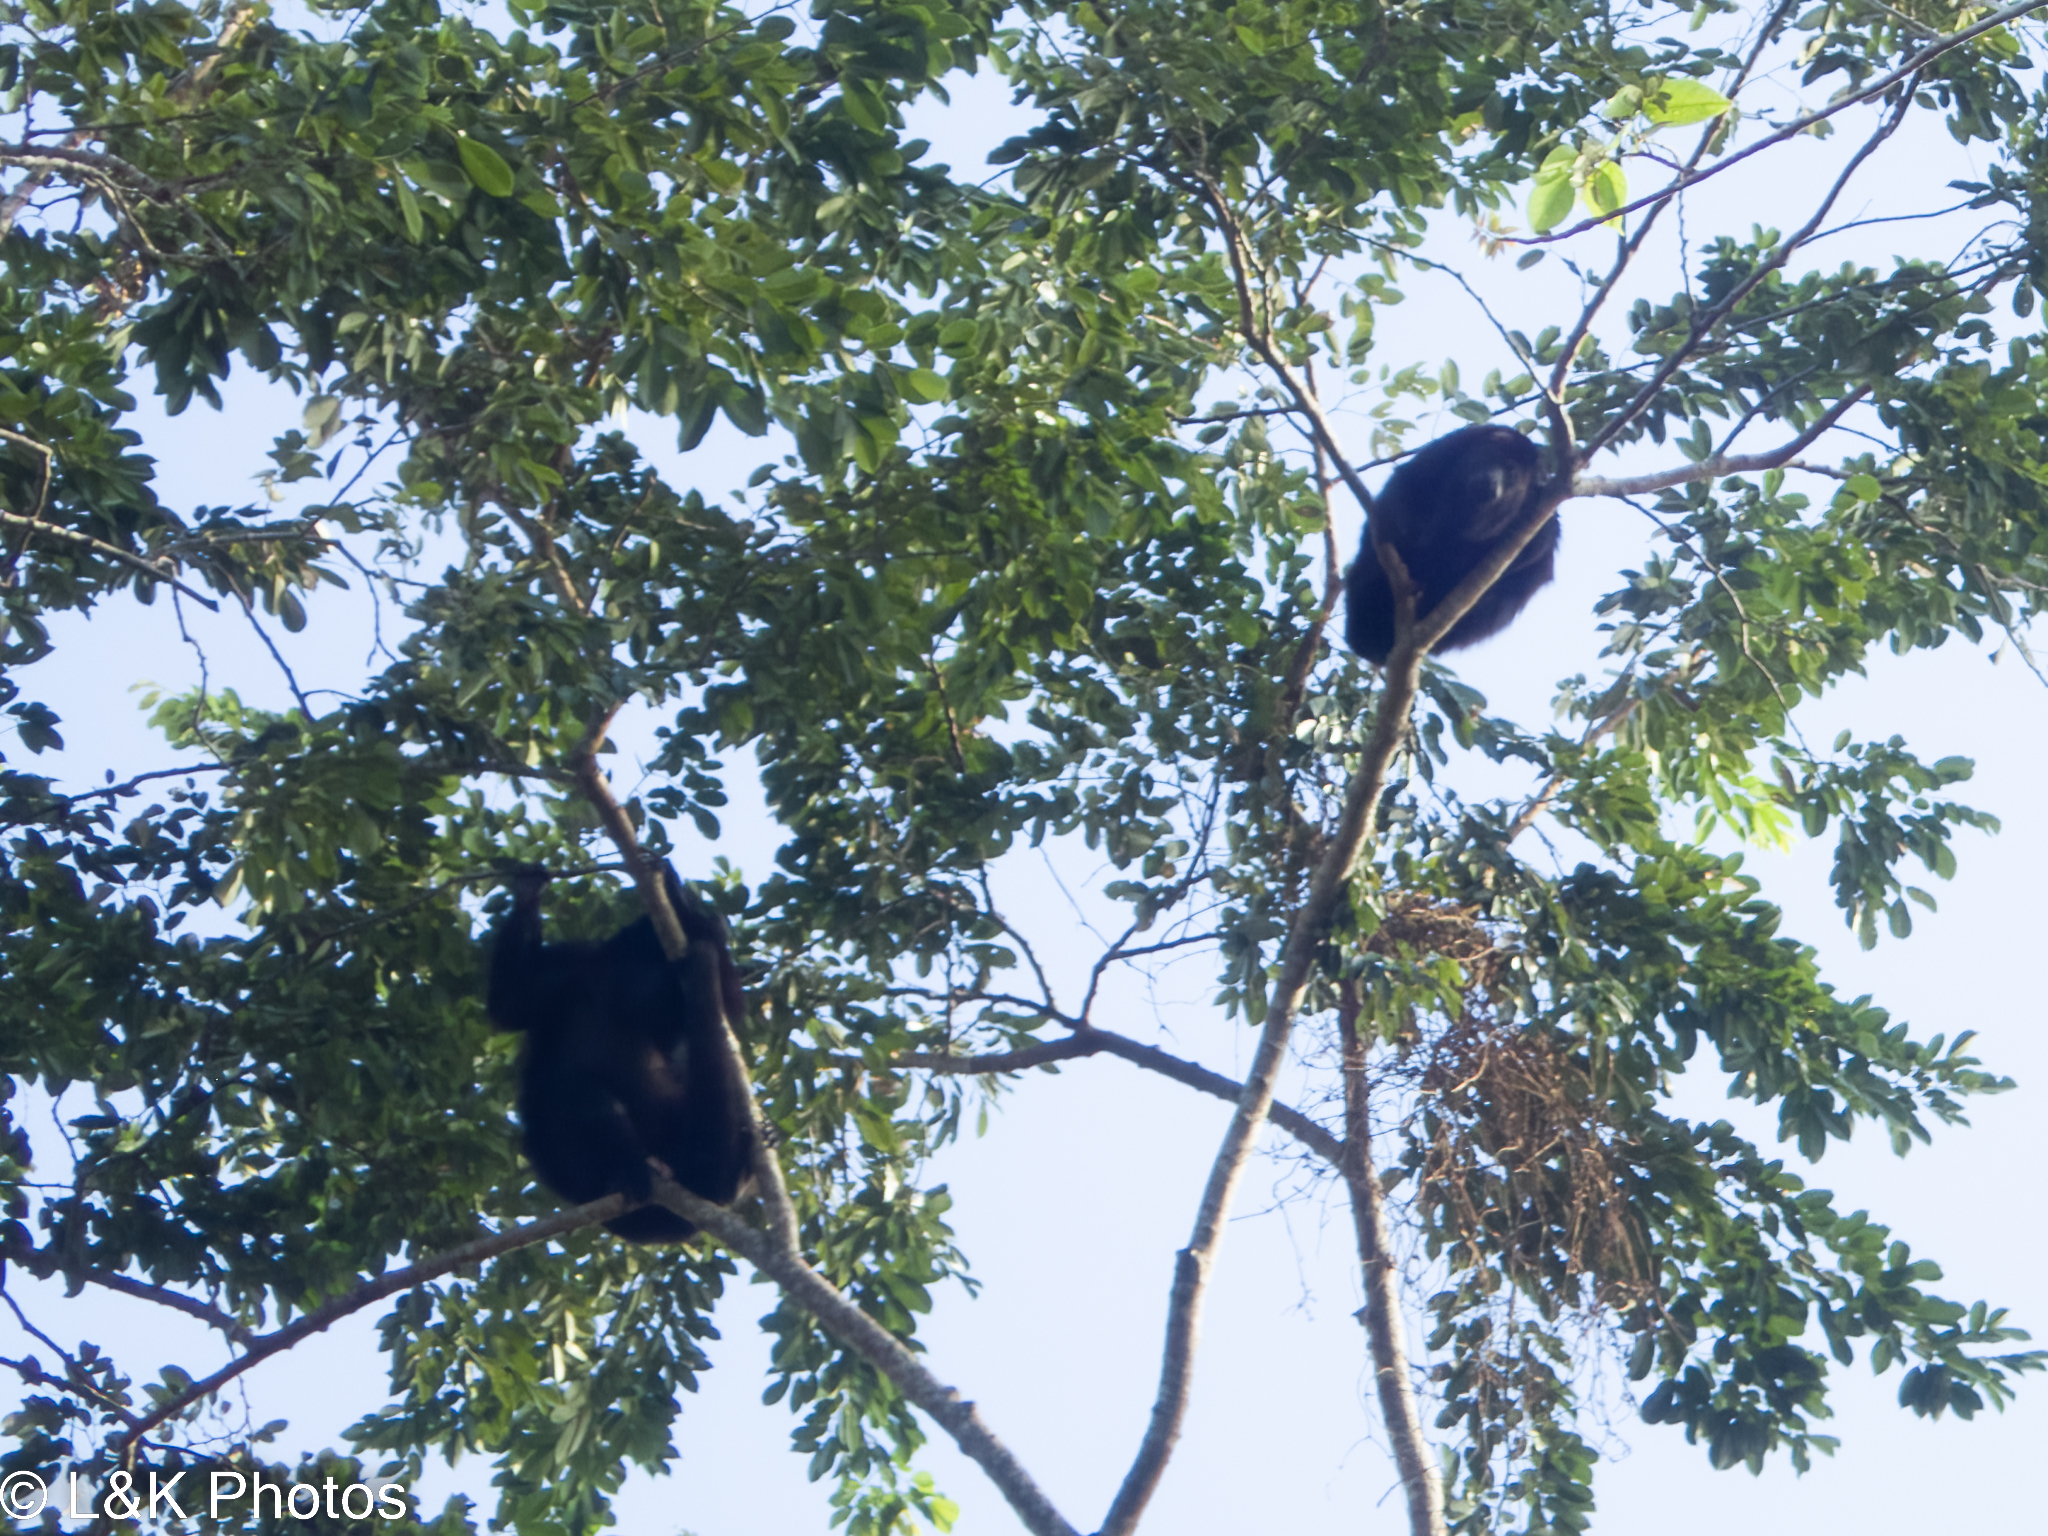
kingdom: Animalia
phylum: Chordata
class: Mammalia
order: Primates
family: Atelidae
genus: Alouatta
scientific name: Alouatta pigra
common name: Guatemalan black howler
